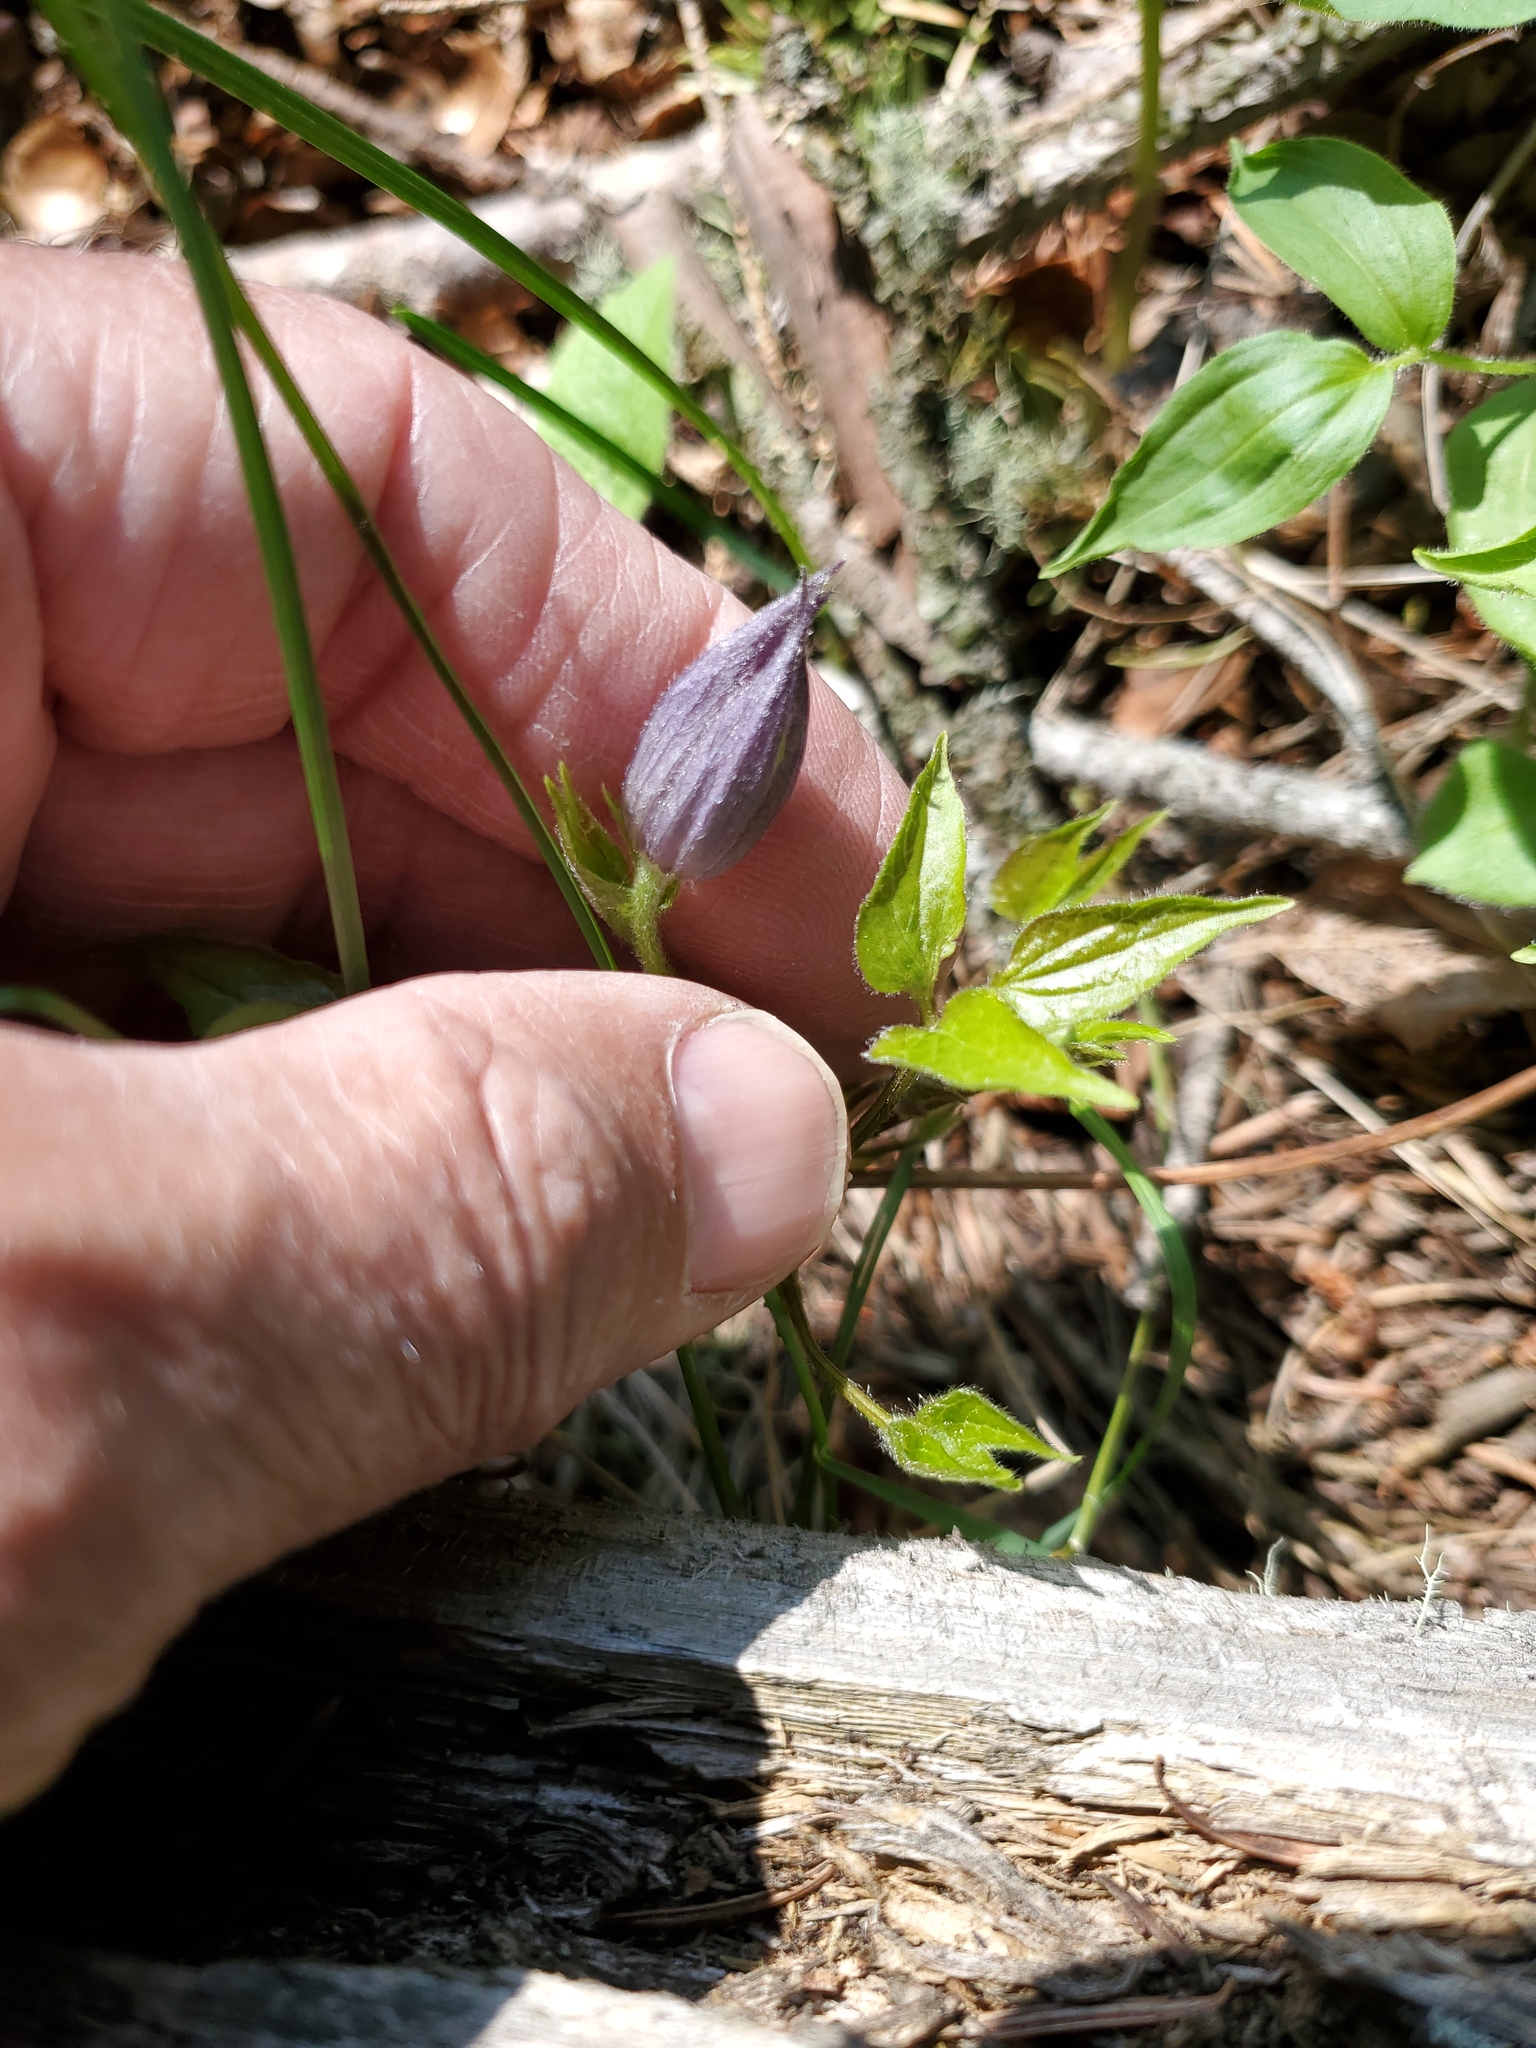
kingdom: Plantae
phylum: Tracheophyta
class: Magnoliopsida
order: Ranunculales
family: Ranunculaceae
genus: Clematis
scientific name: Clematis occidentalis
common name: Purple clematis
